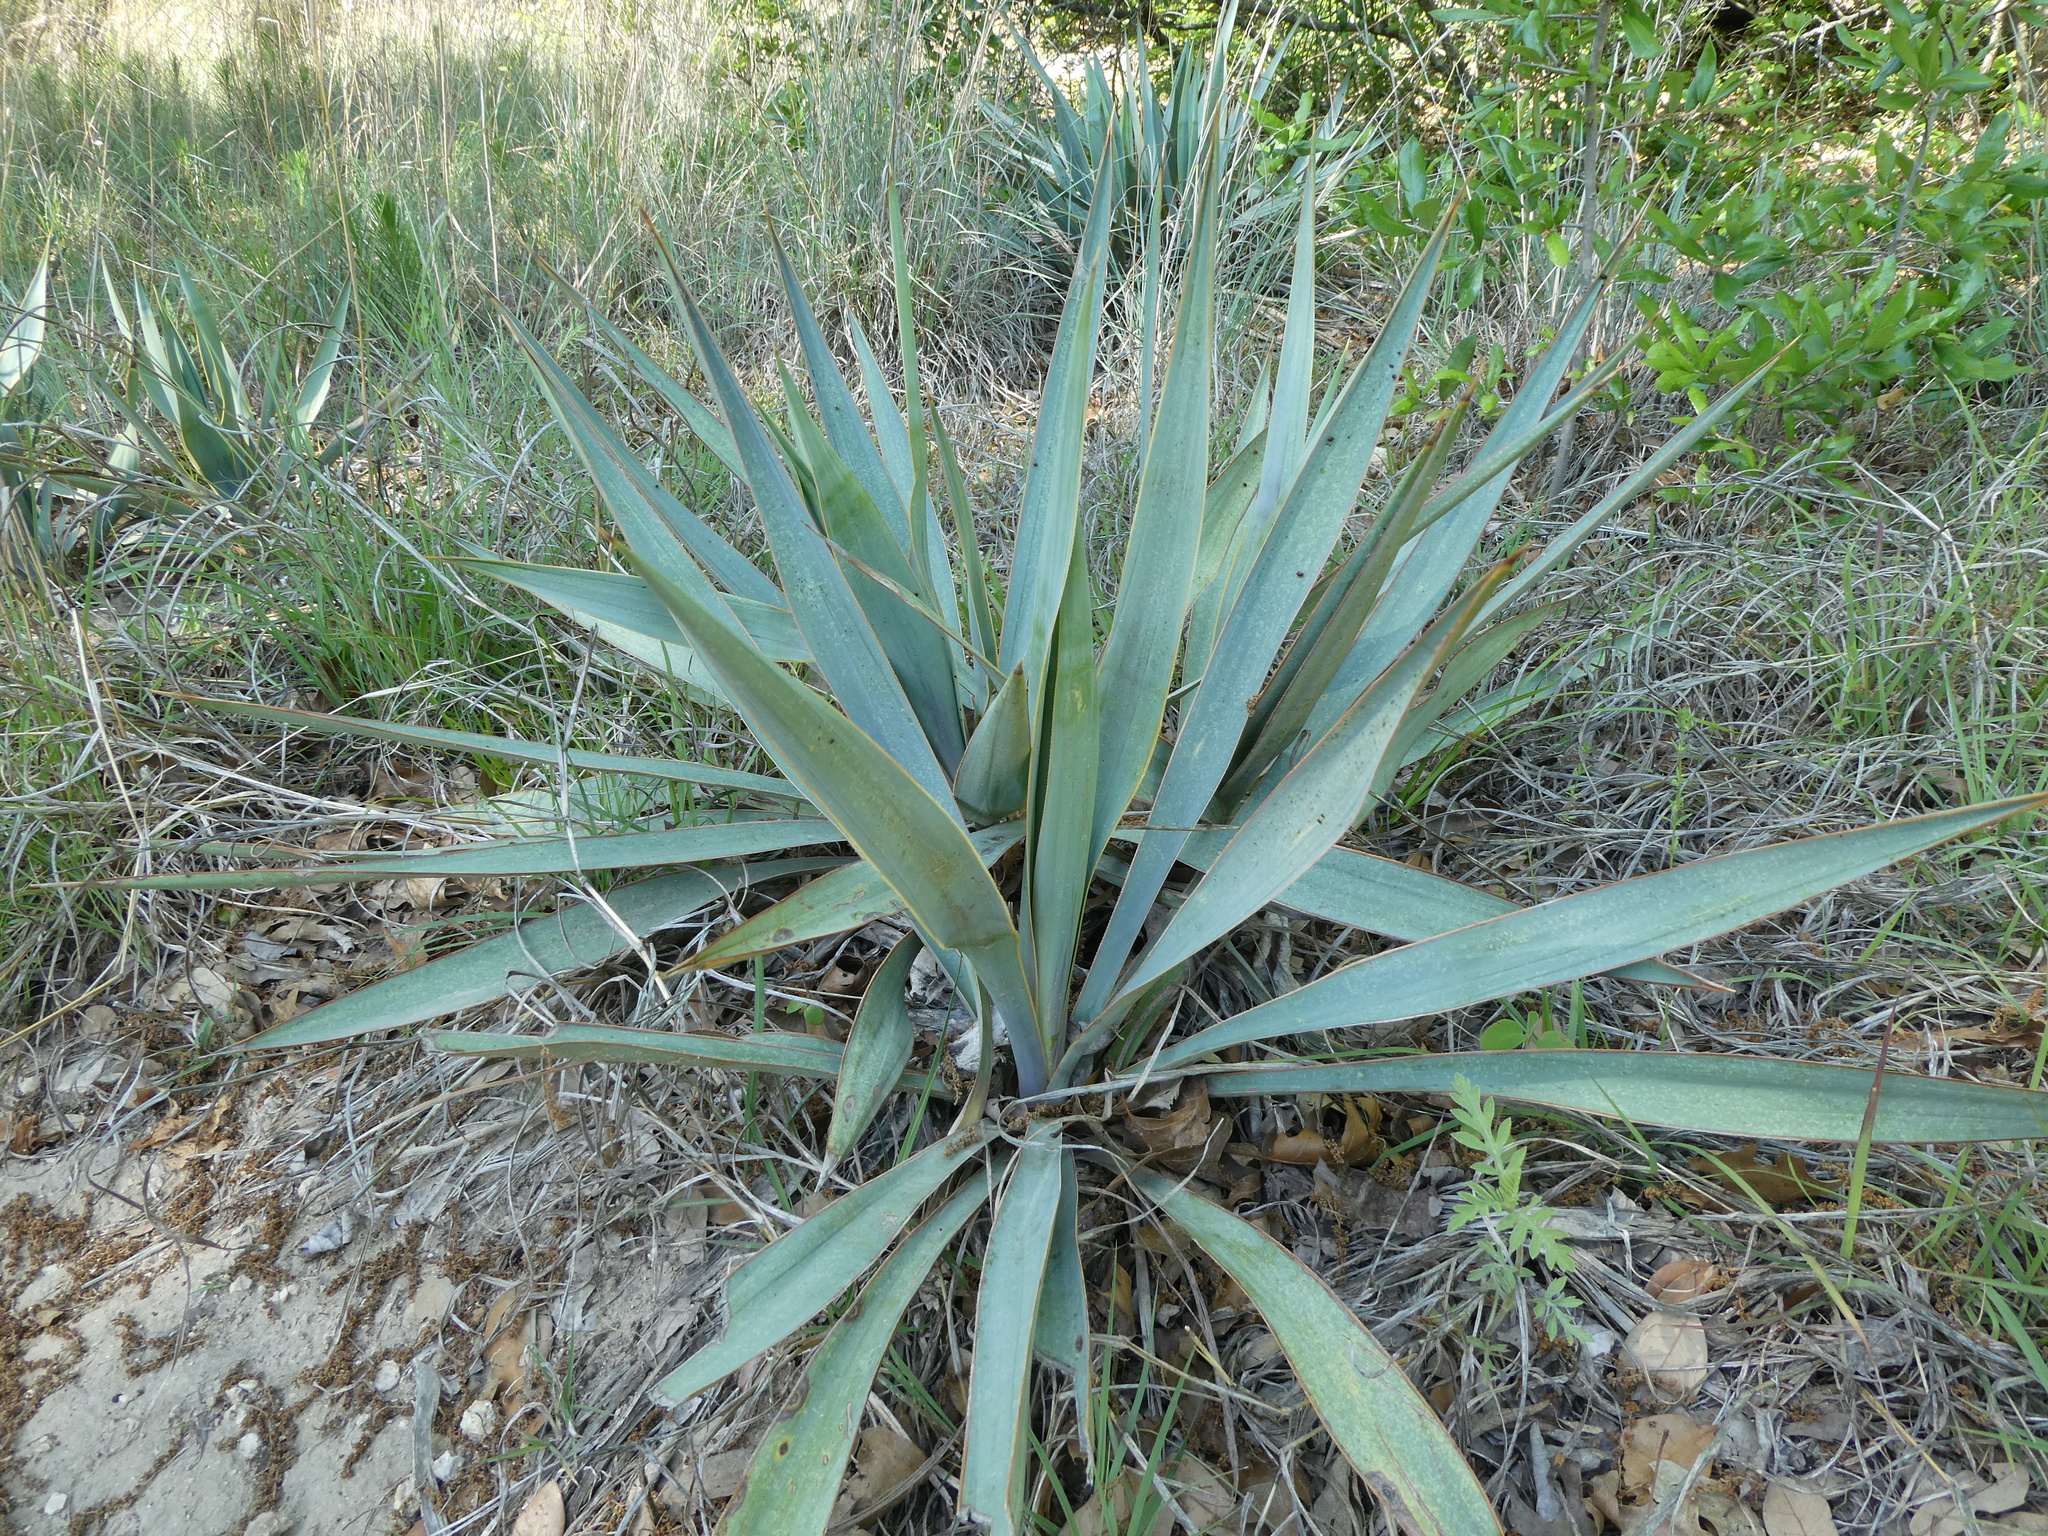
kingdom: Plantae
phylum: Tracheophyta
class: Liliopsida
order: Asparagales
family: Asparagaceae
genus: Yucca
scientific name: Yucca pallida
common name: Pale leaf yucca
